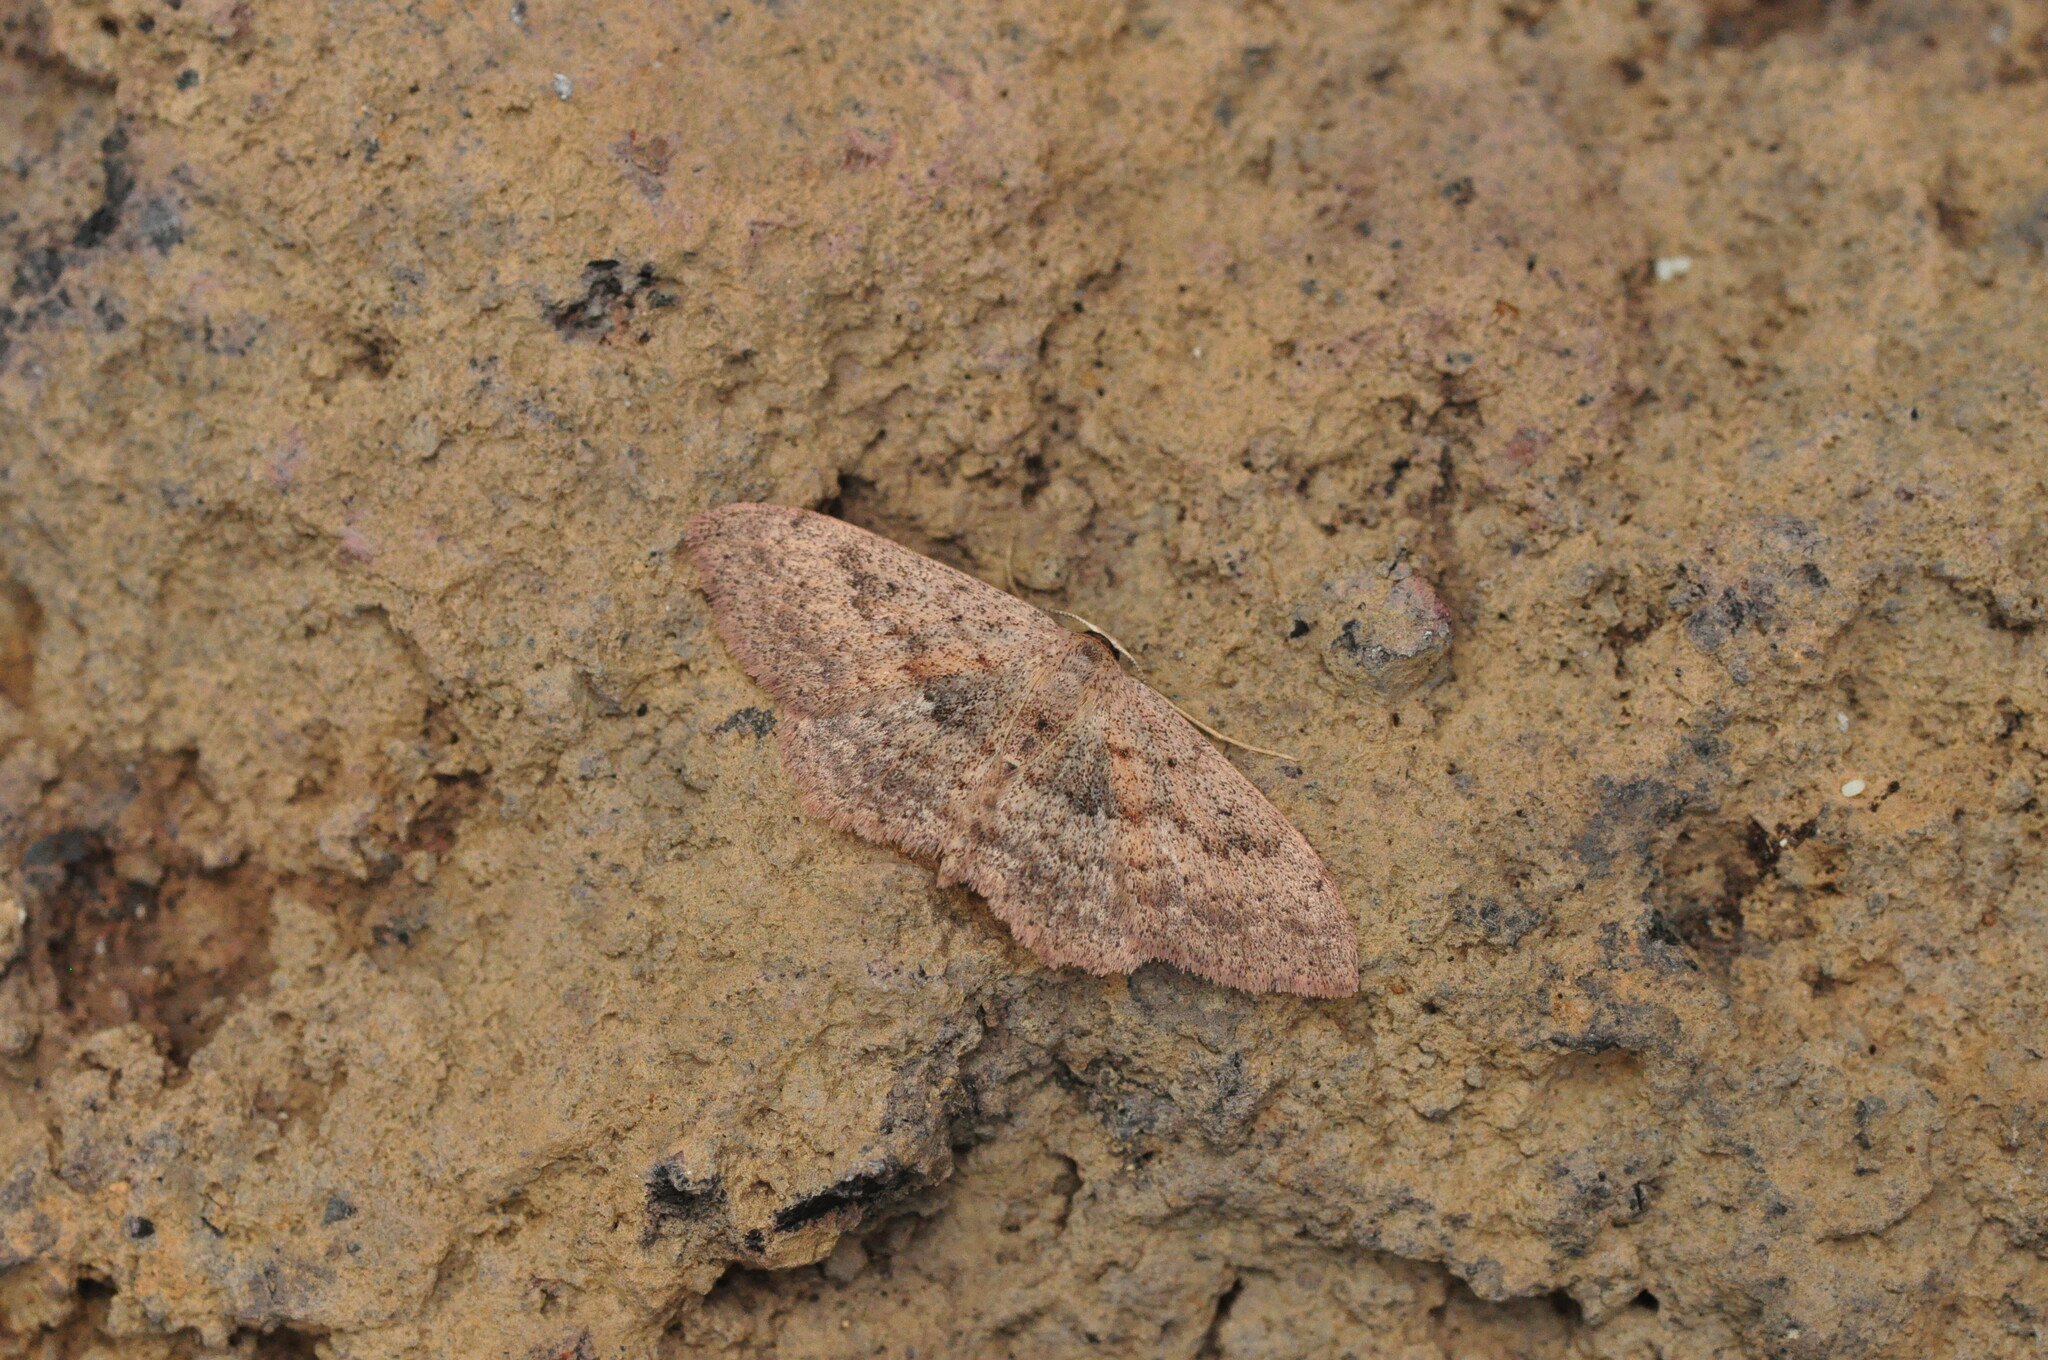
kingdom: Animalia
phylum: Arthropoda
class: Insecta
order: Lepidoptera
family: Geometridae
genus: Scopula
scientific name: Scopula guancharia
